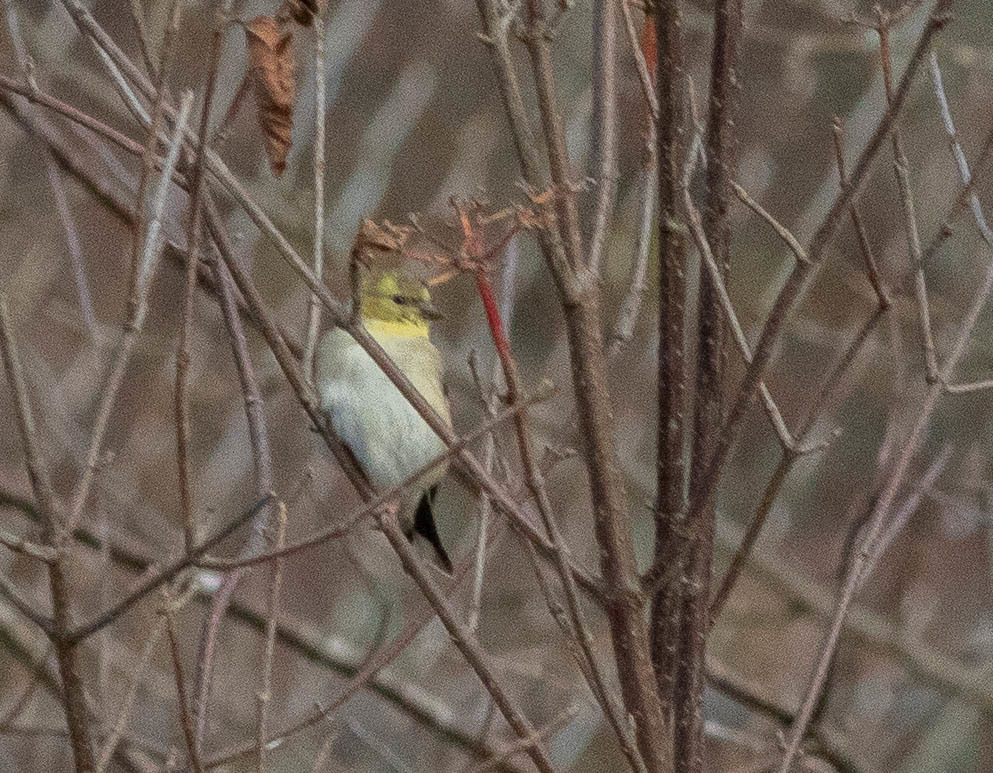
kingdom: Animalia
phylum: Chordata
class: Aves
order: Passeriformes
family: Fringillidae
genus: Spinus
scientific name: Spinus tristis
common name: American goldfinch
